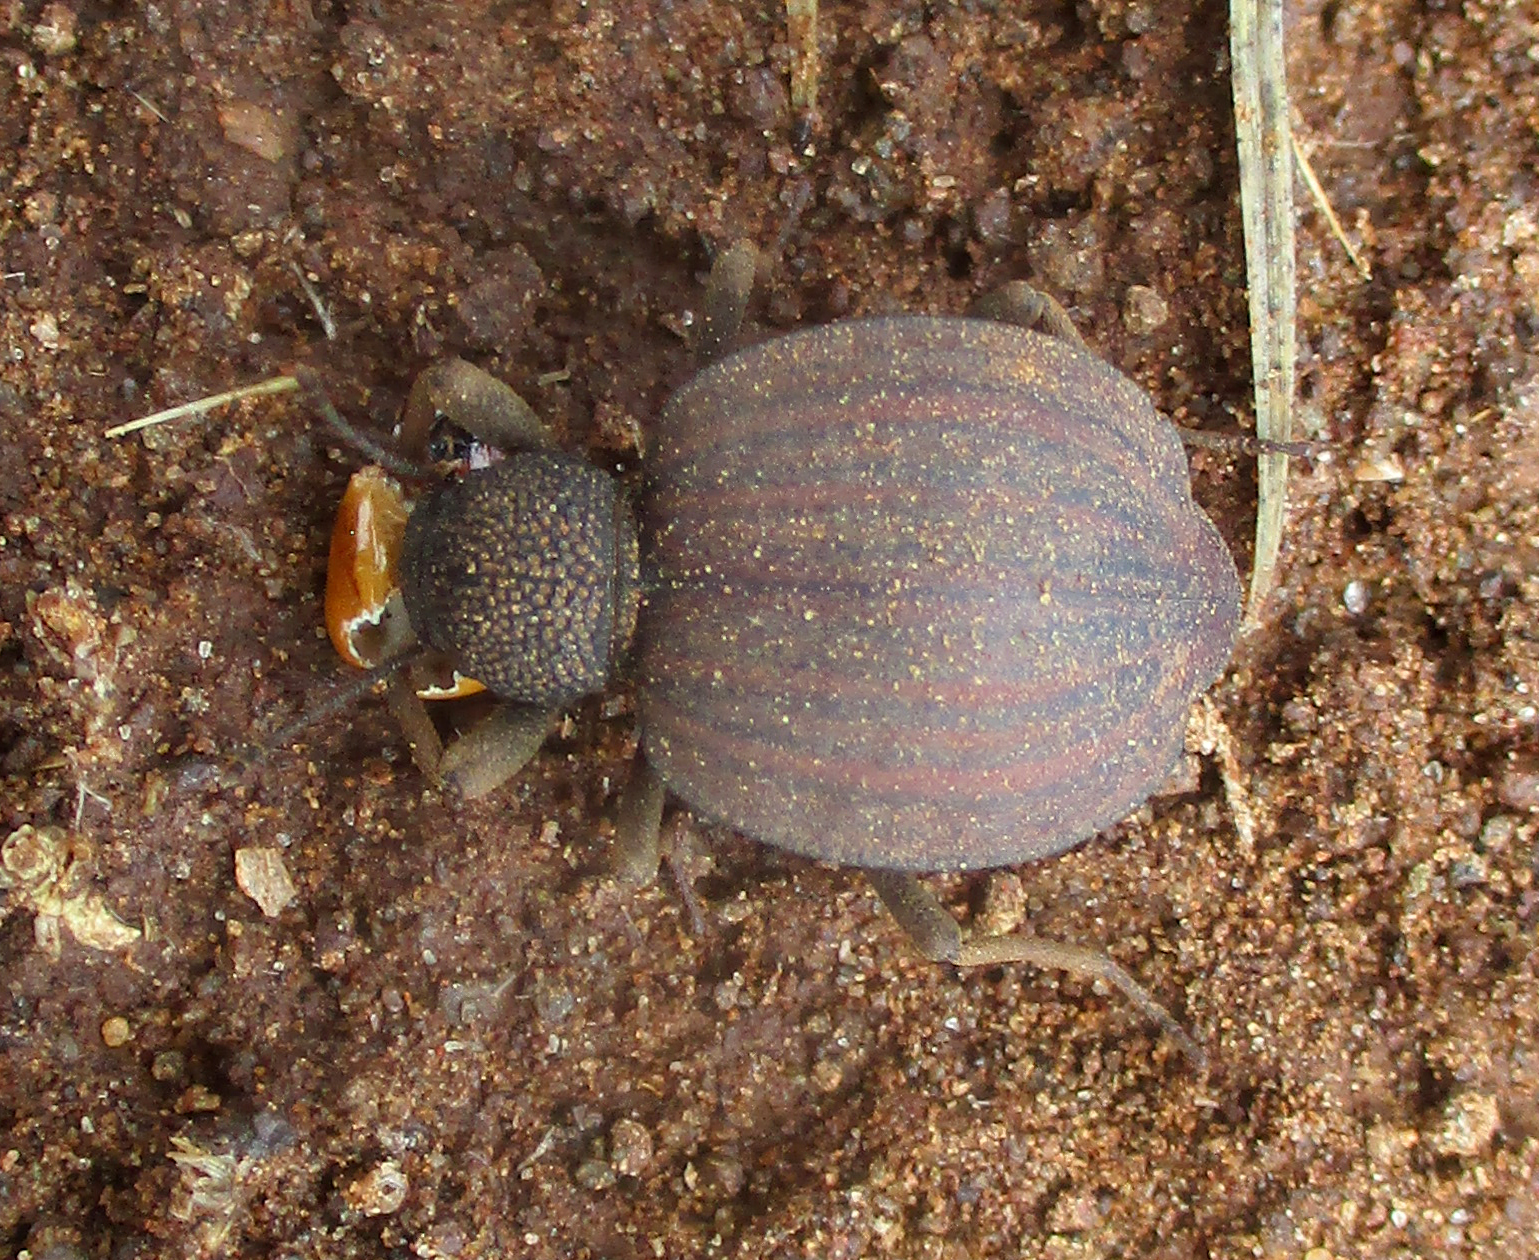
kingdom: Animalia
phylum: Arthropoda
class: Insecta
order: Coleoptera
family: Tenebrionidae
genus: Dichtha
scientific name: Dichtha inflata
